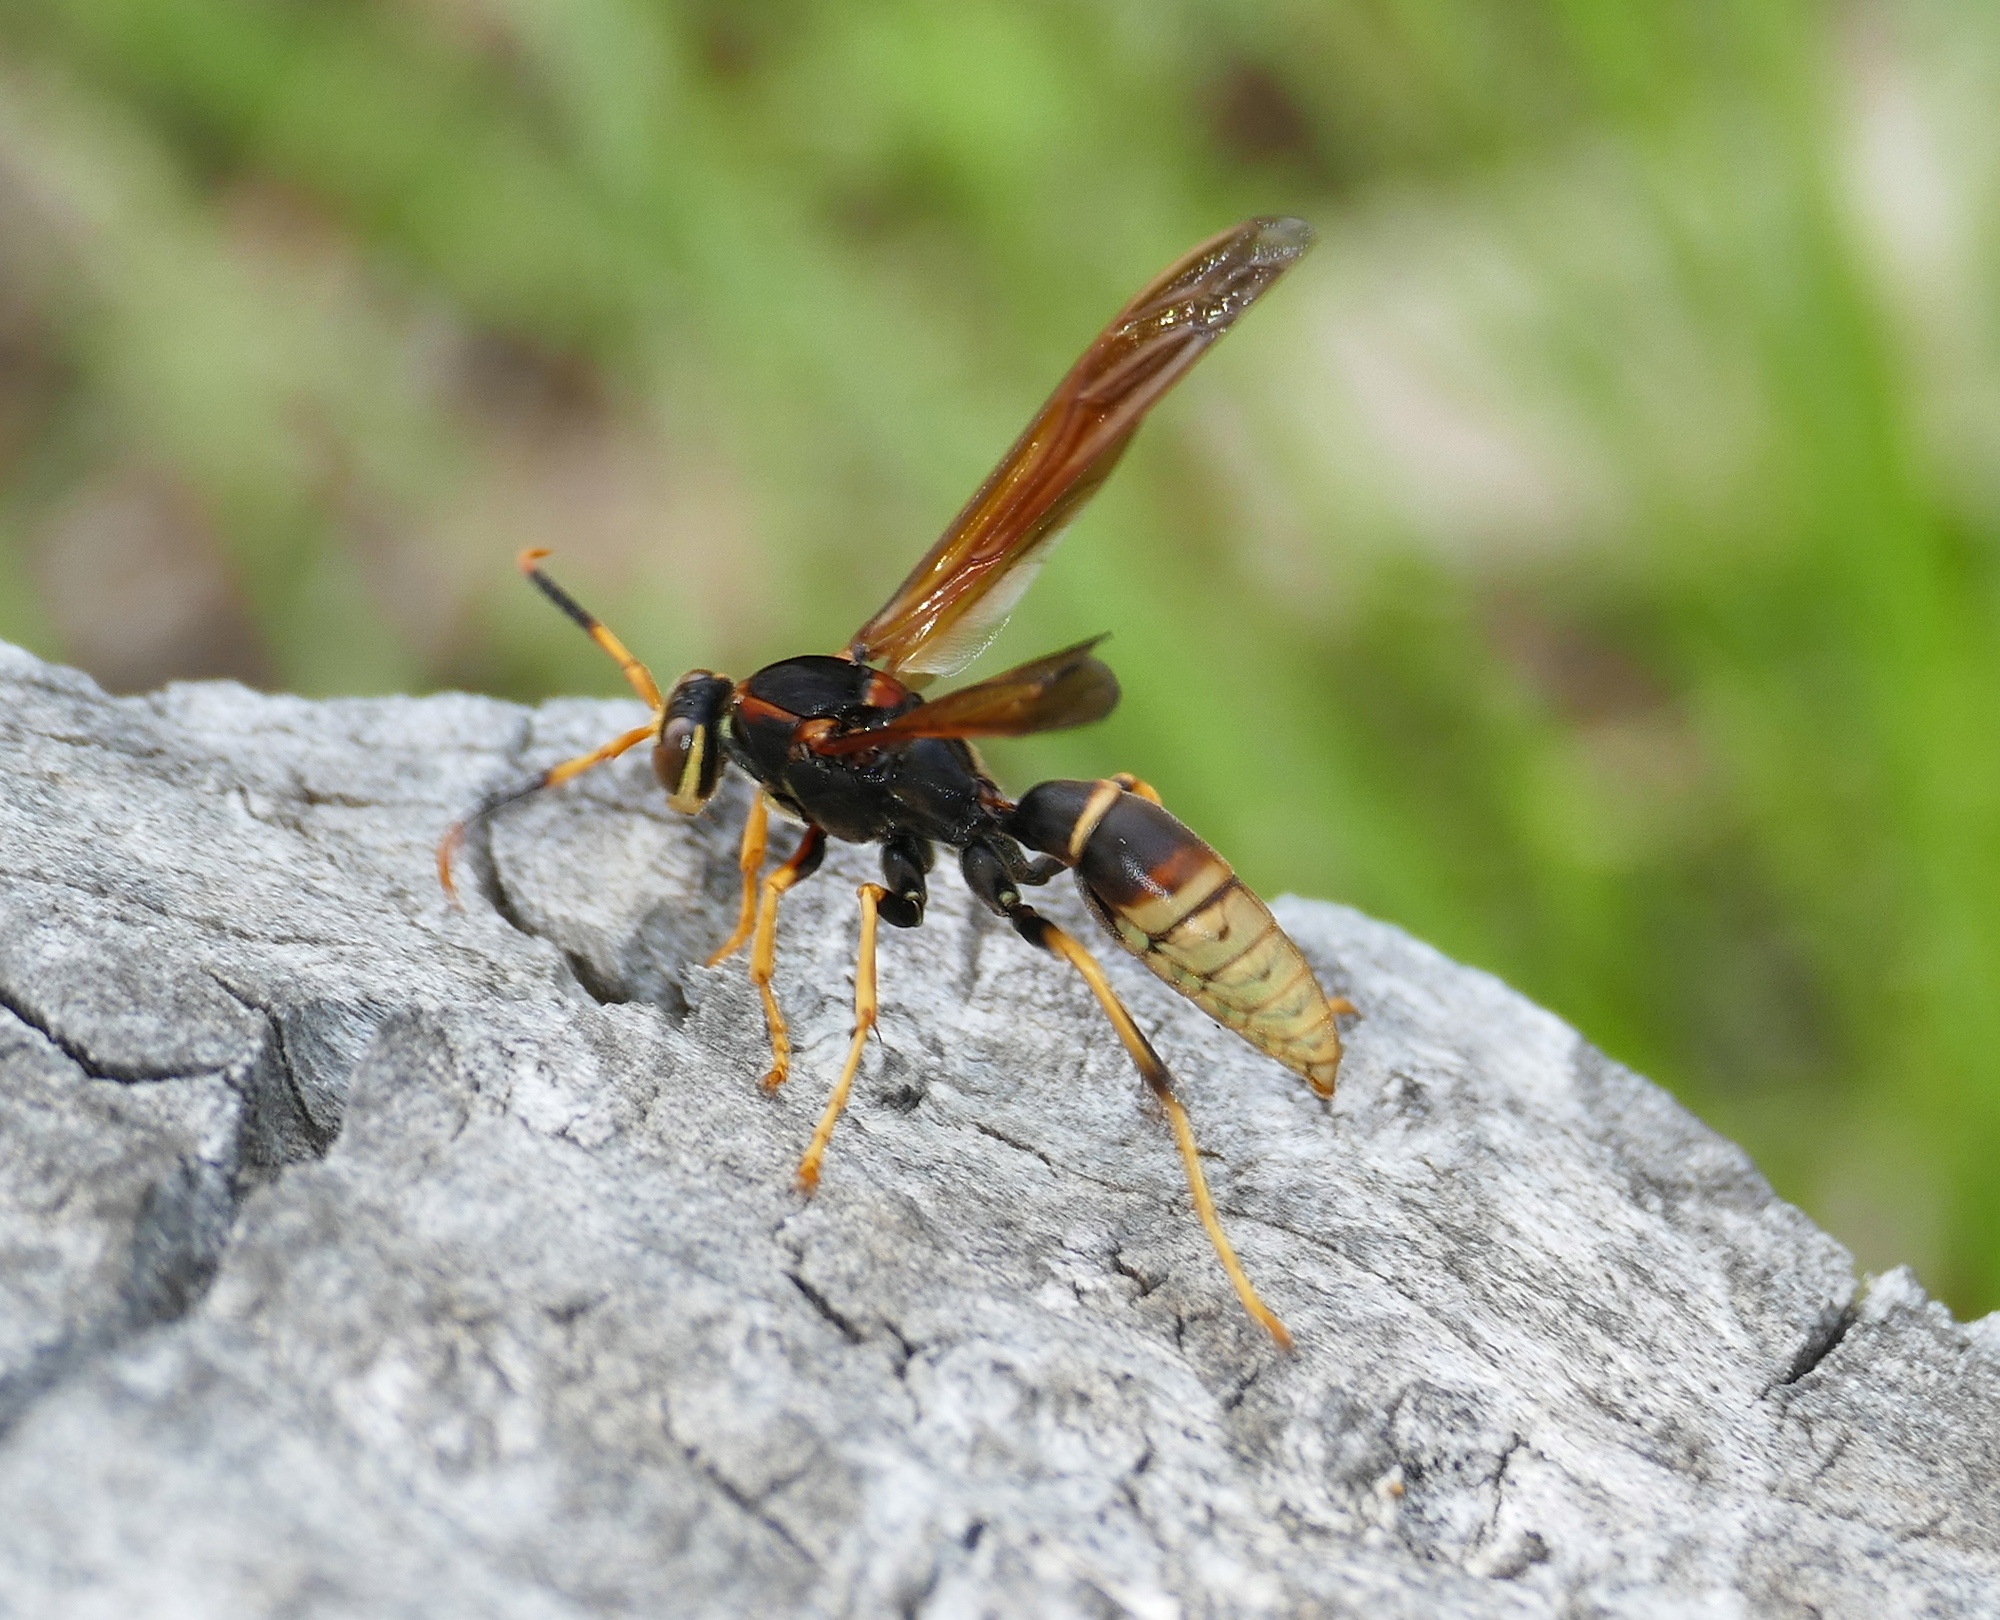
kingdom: Animalia
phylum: Arthropoda
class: Insecta
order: Hymenoptera
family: Eumenidae
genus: Polistes
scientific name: Polistes comanchus
